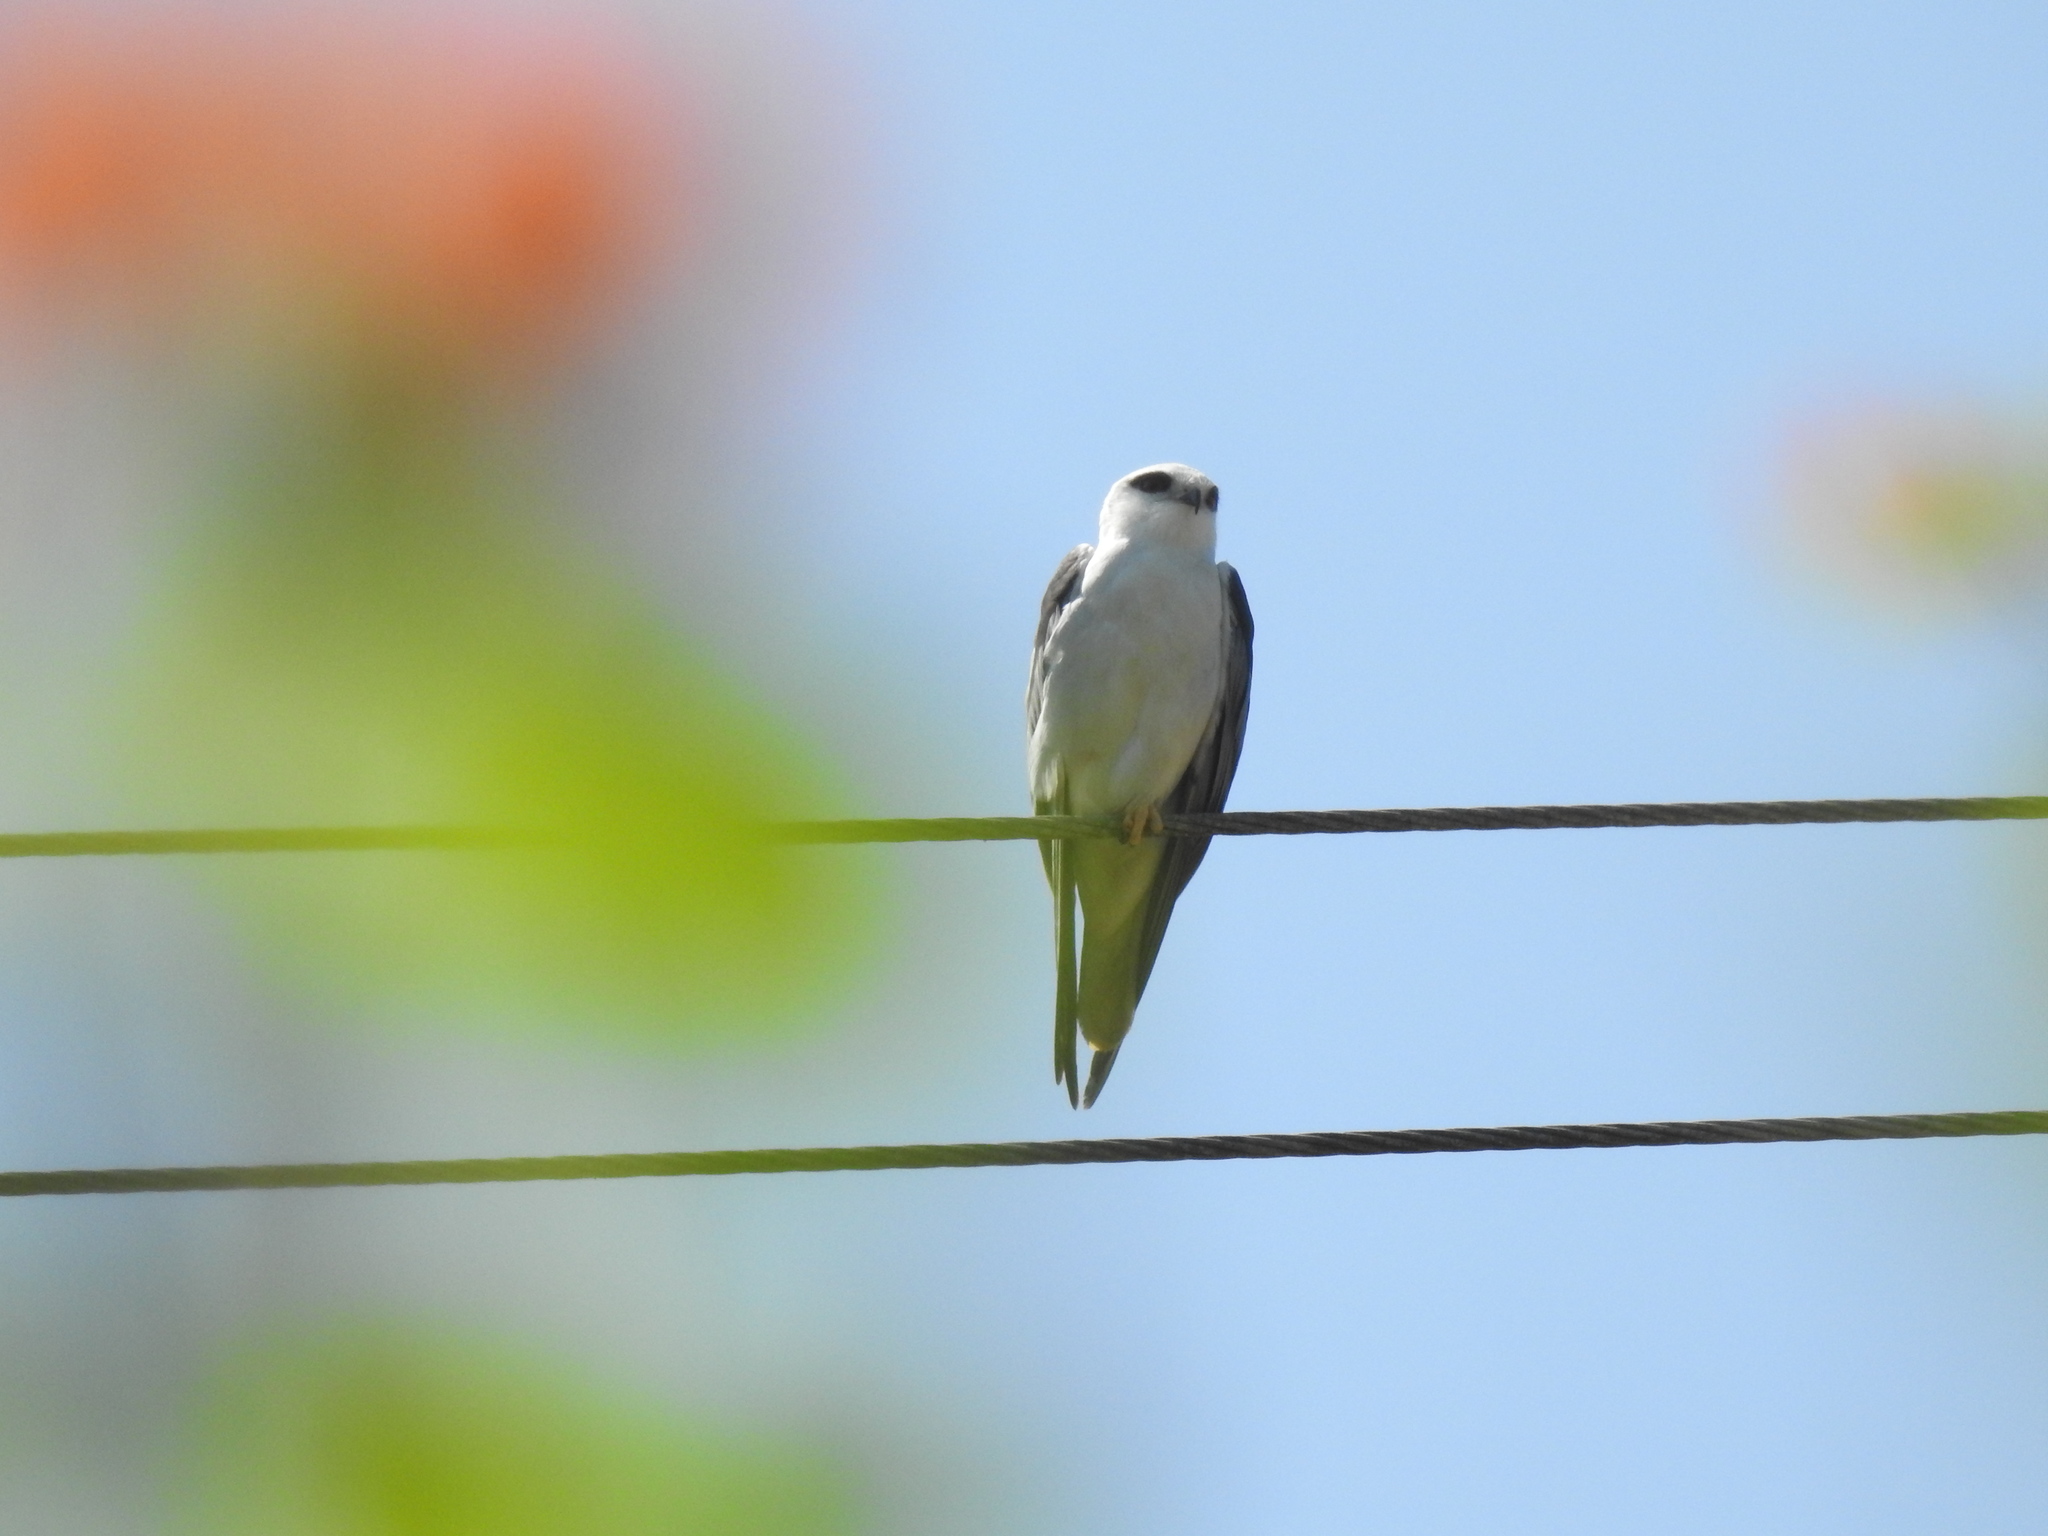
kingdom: Animalia
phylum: Chordata
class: Aves
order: Accipitriformes
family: Accipitridae
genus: Elanus
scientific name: Elanus caeruleus
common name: Black-winged kite
